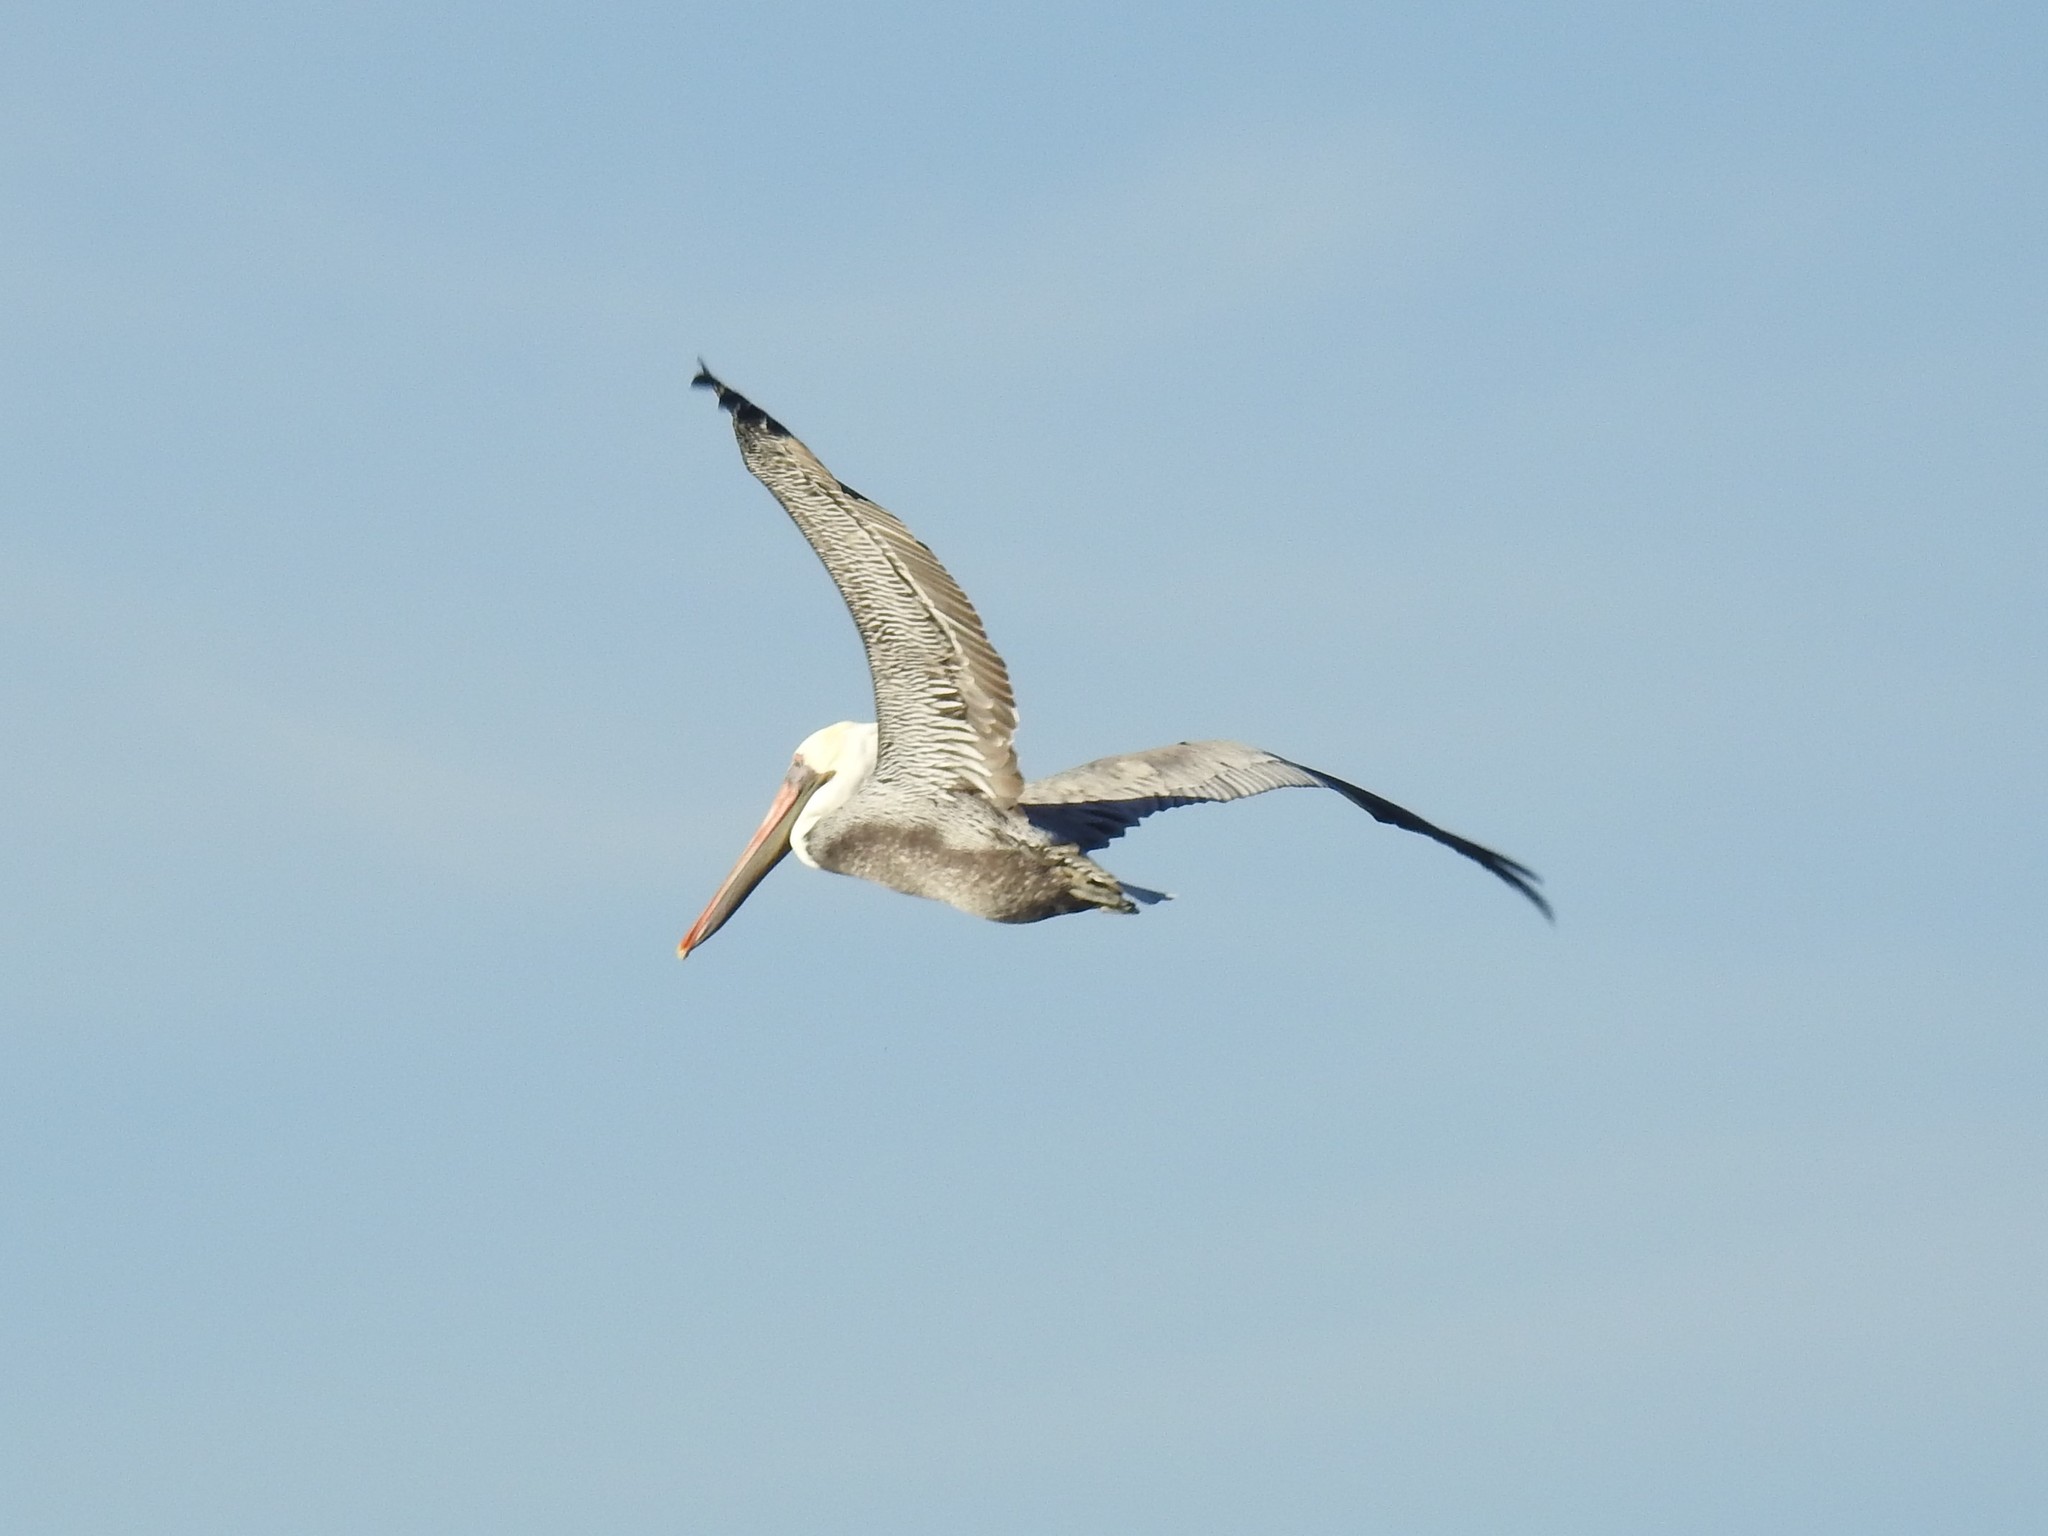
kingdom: Animalia
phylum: Chordata
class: Aves
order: Pelecaniformes
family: Pelecanidae
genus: Pelecanus
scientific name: Pelecanus occidentalis
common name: Brown pelican
